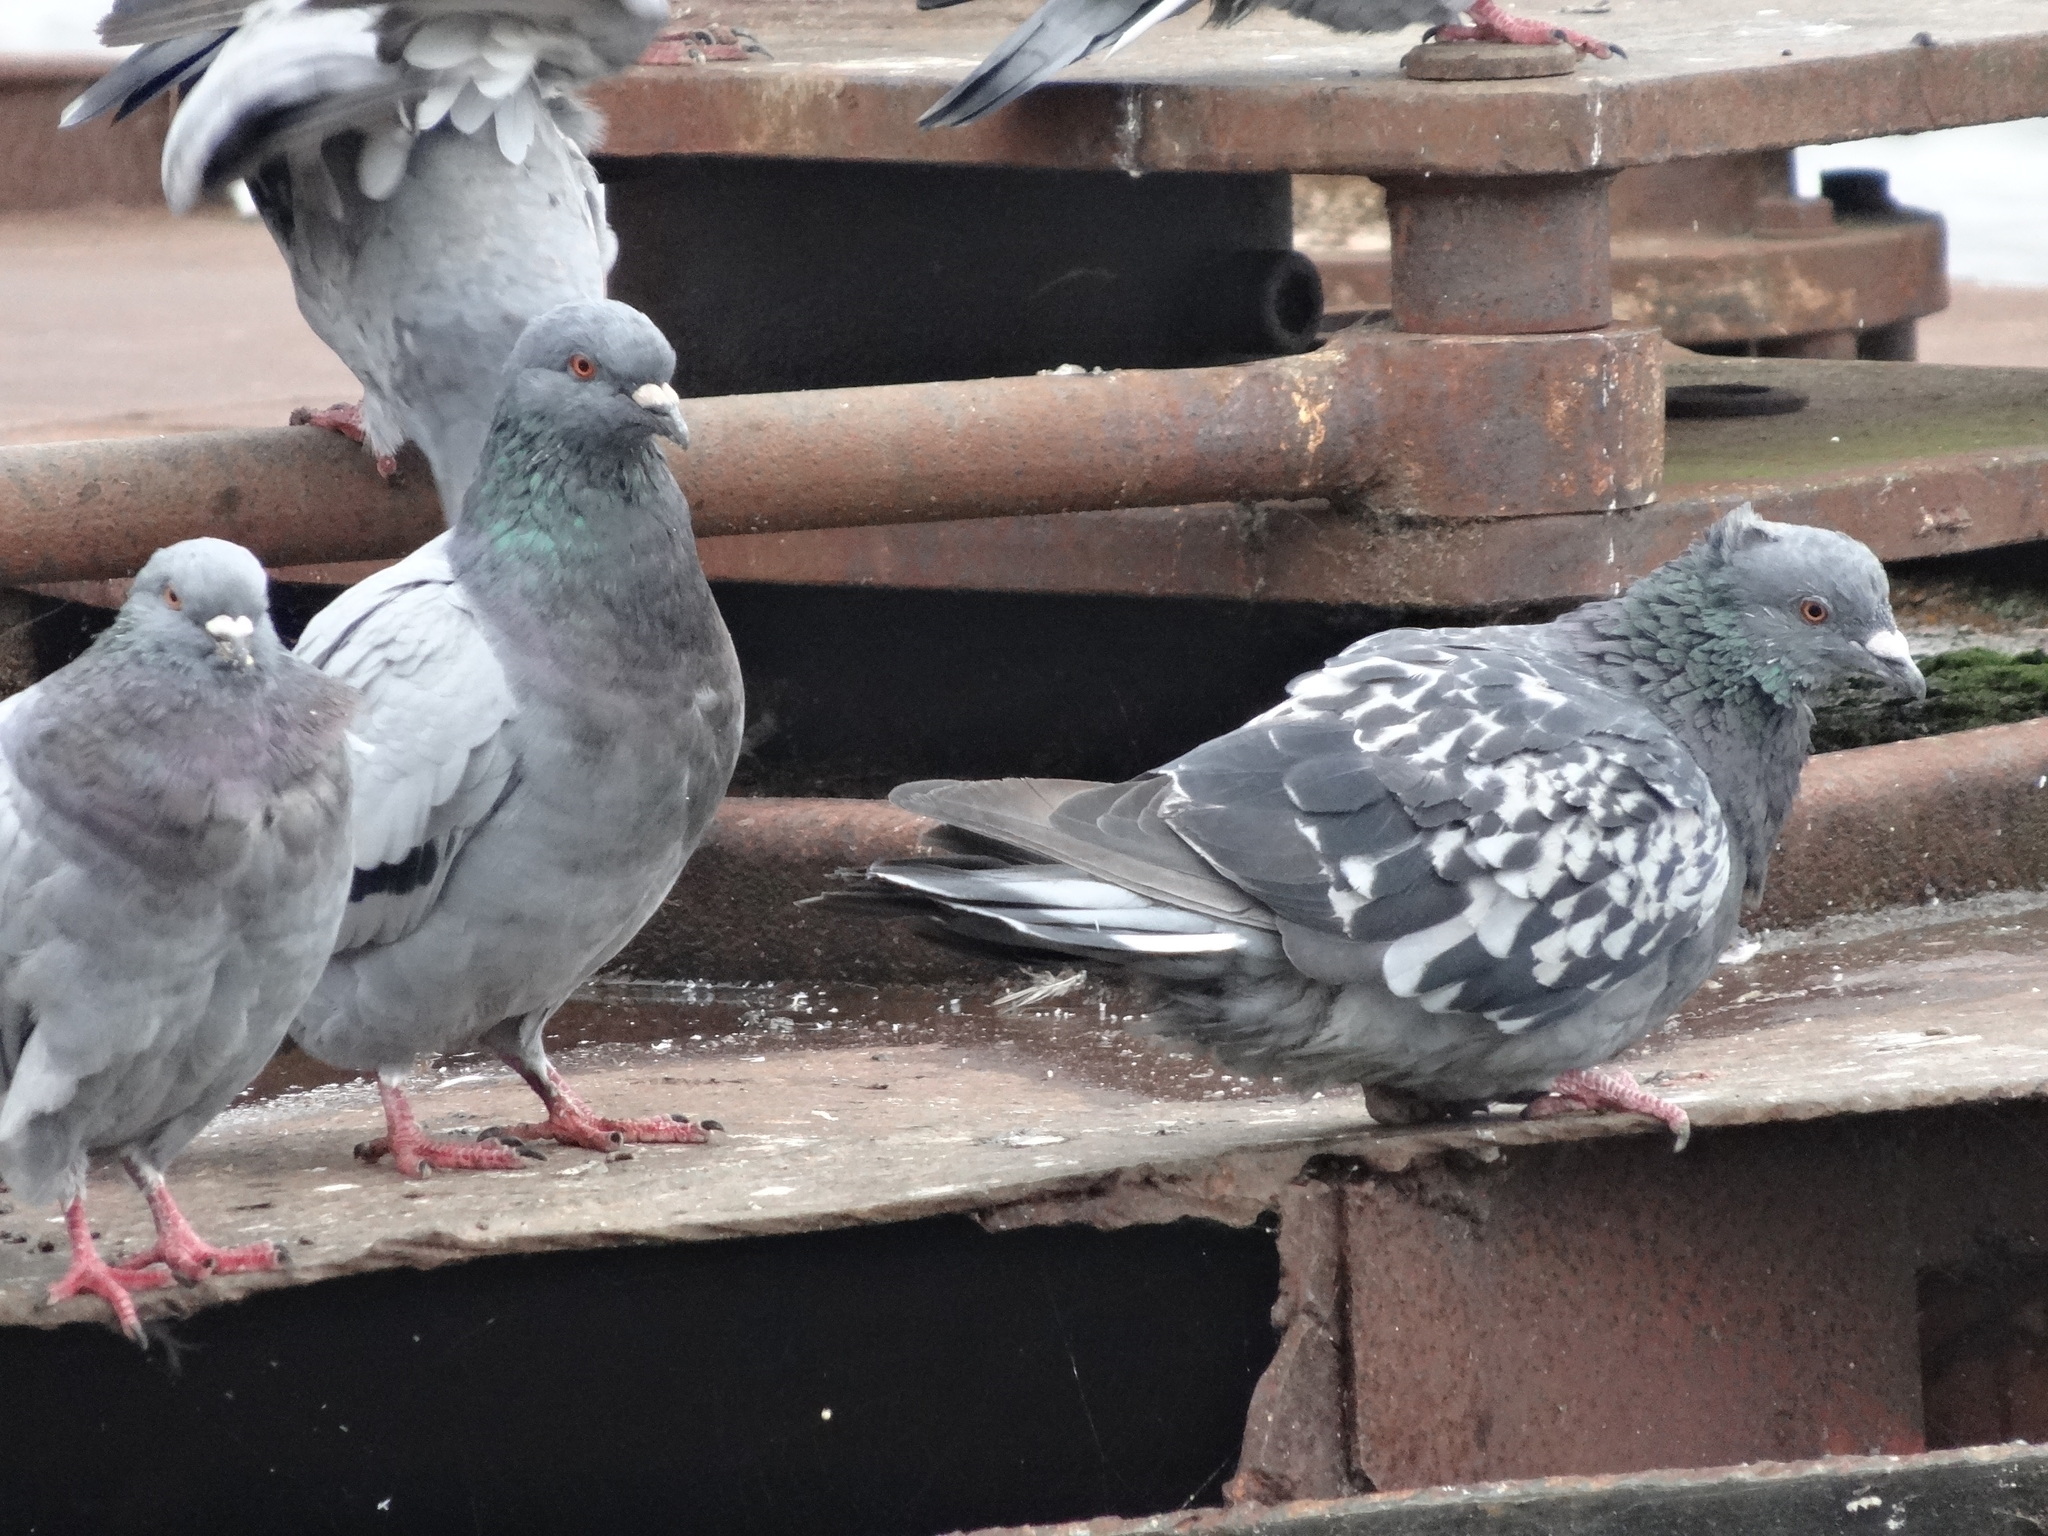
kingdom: Animalia
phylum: Chordata
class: Aves
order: Columbiformes
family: Columbidae
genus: Columba
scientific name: Columba livia
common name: Rock pigeon
